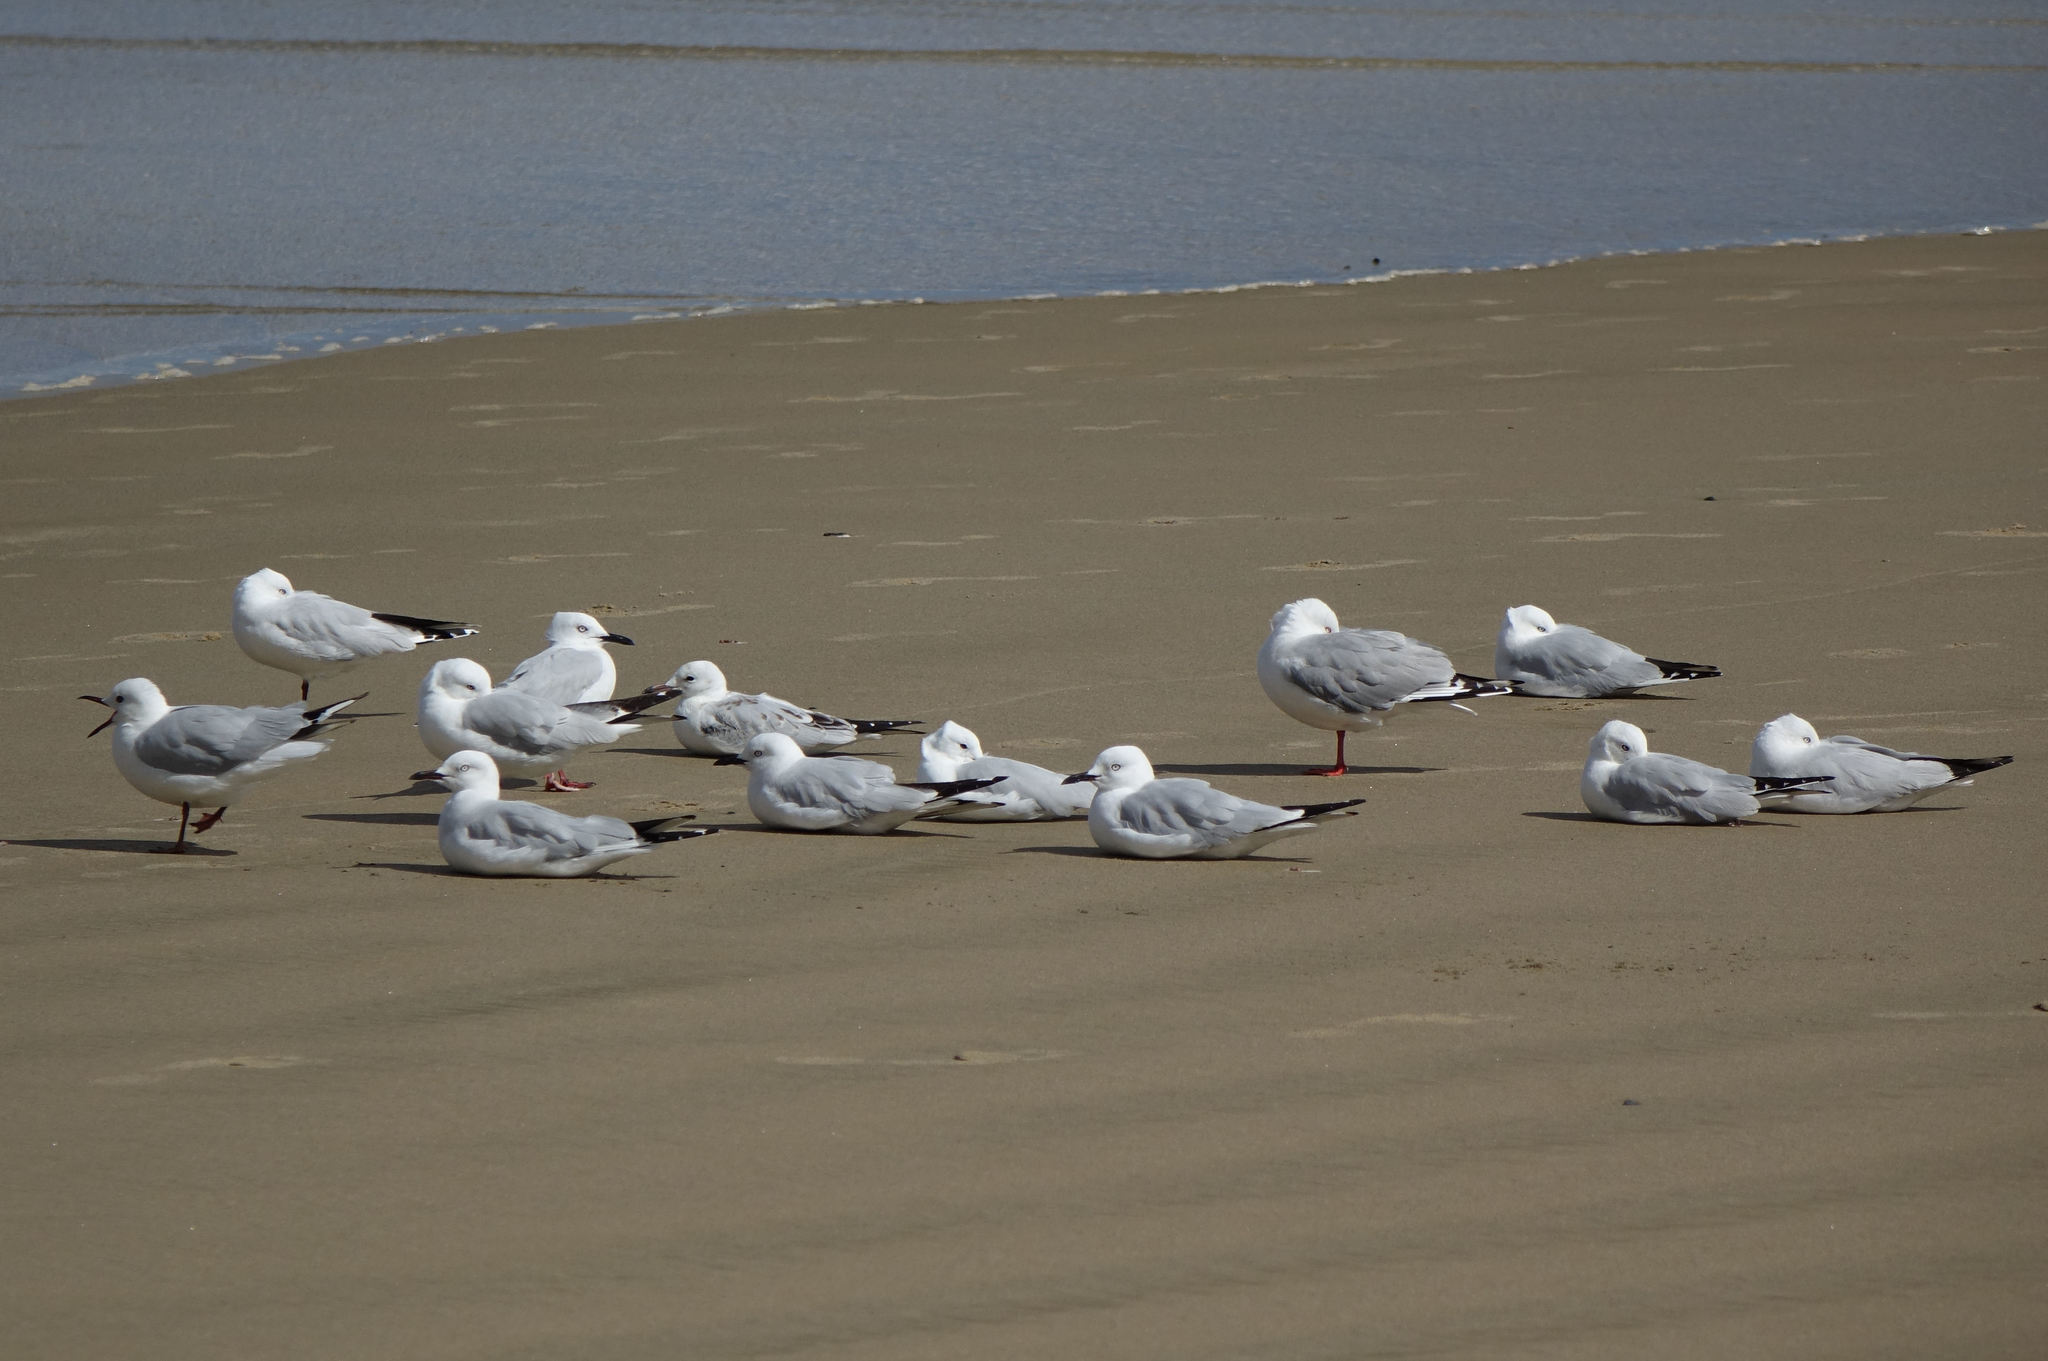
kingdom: Animalia
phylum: Chordata
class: Aves
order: Charadriiformes
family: Laridae
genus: Chroicocephalus
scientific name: Chroicocephalus novaehollandiae
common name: Silver gull
